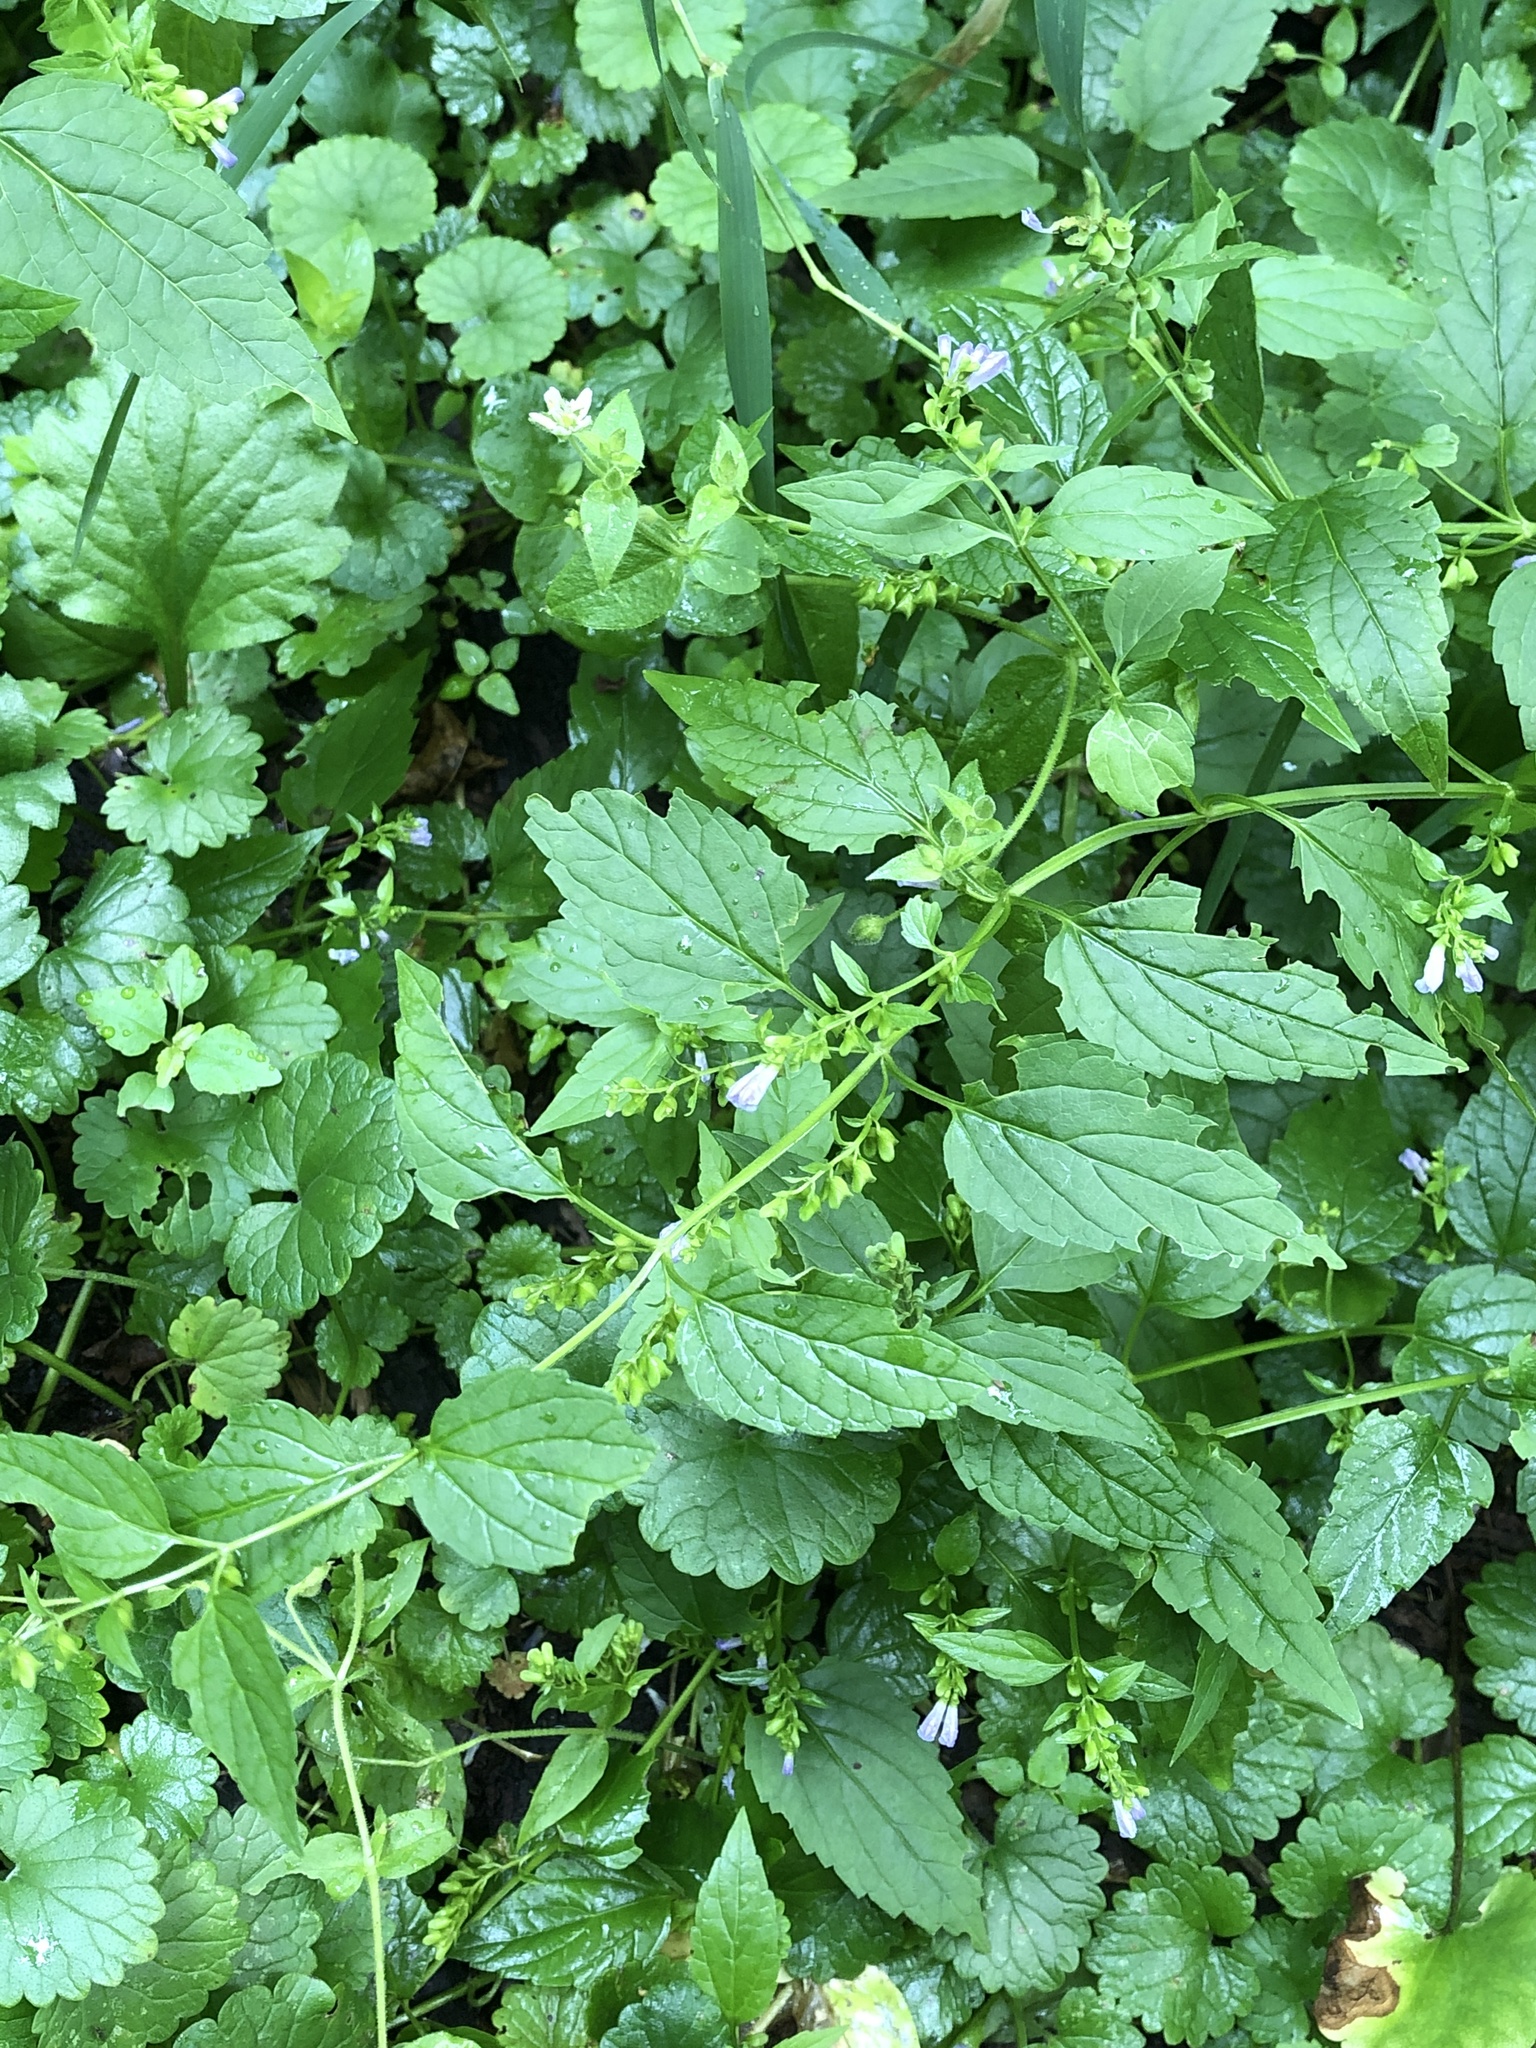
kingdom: Plantae
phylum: Tracheophyta
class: Magnoliopsida
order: Lamiales
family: Lamiaceae
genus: Scutellaria
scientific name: Scutellaria lateriflora
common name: Blue skullcap
